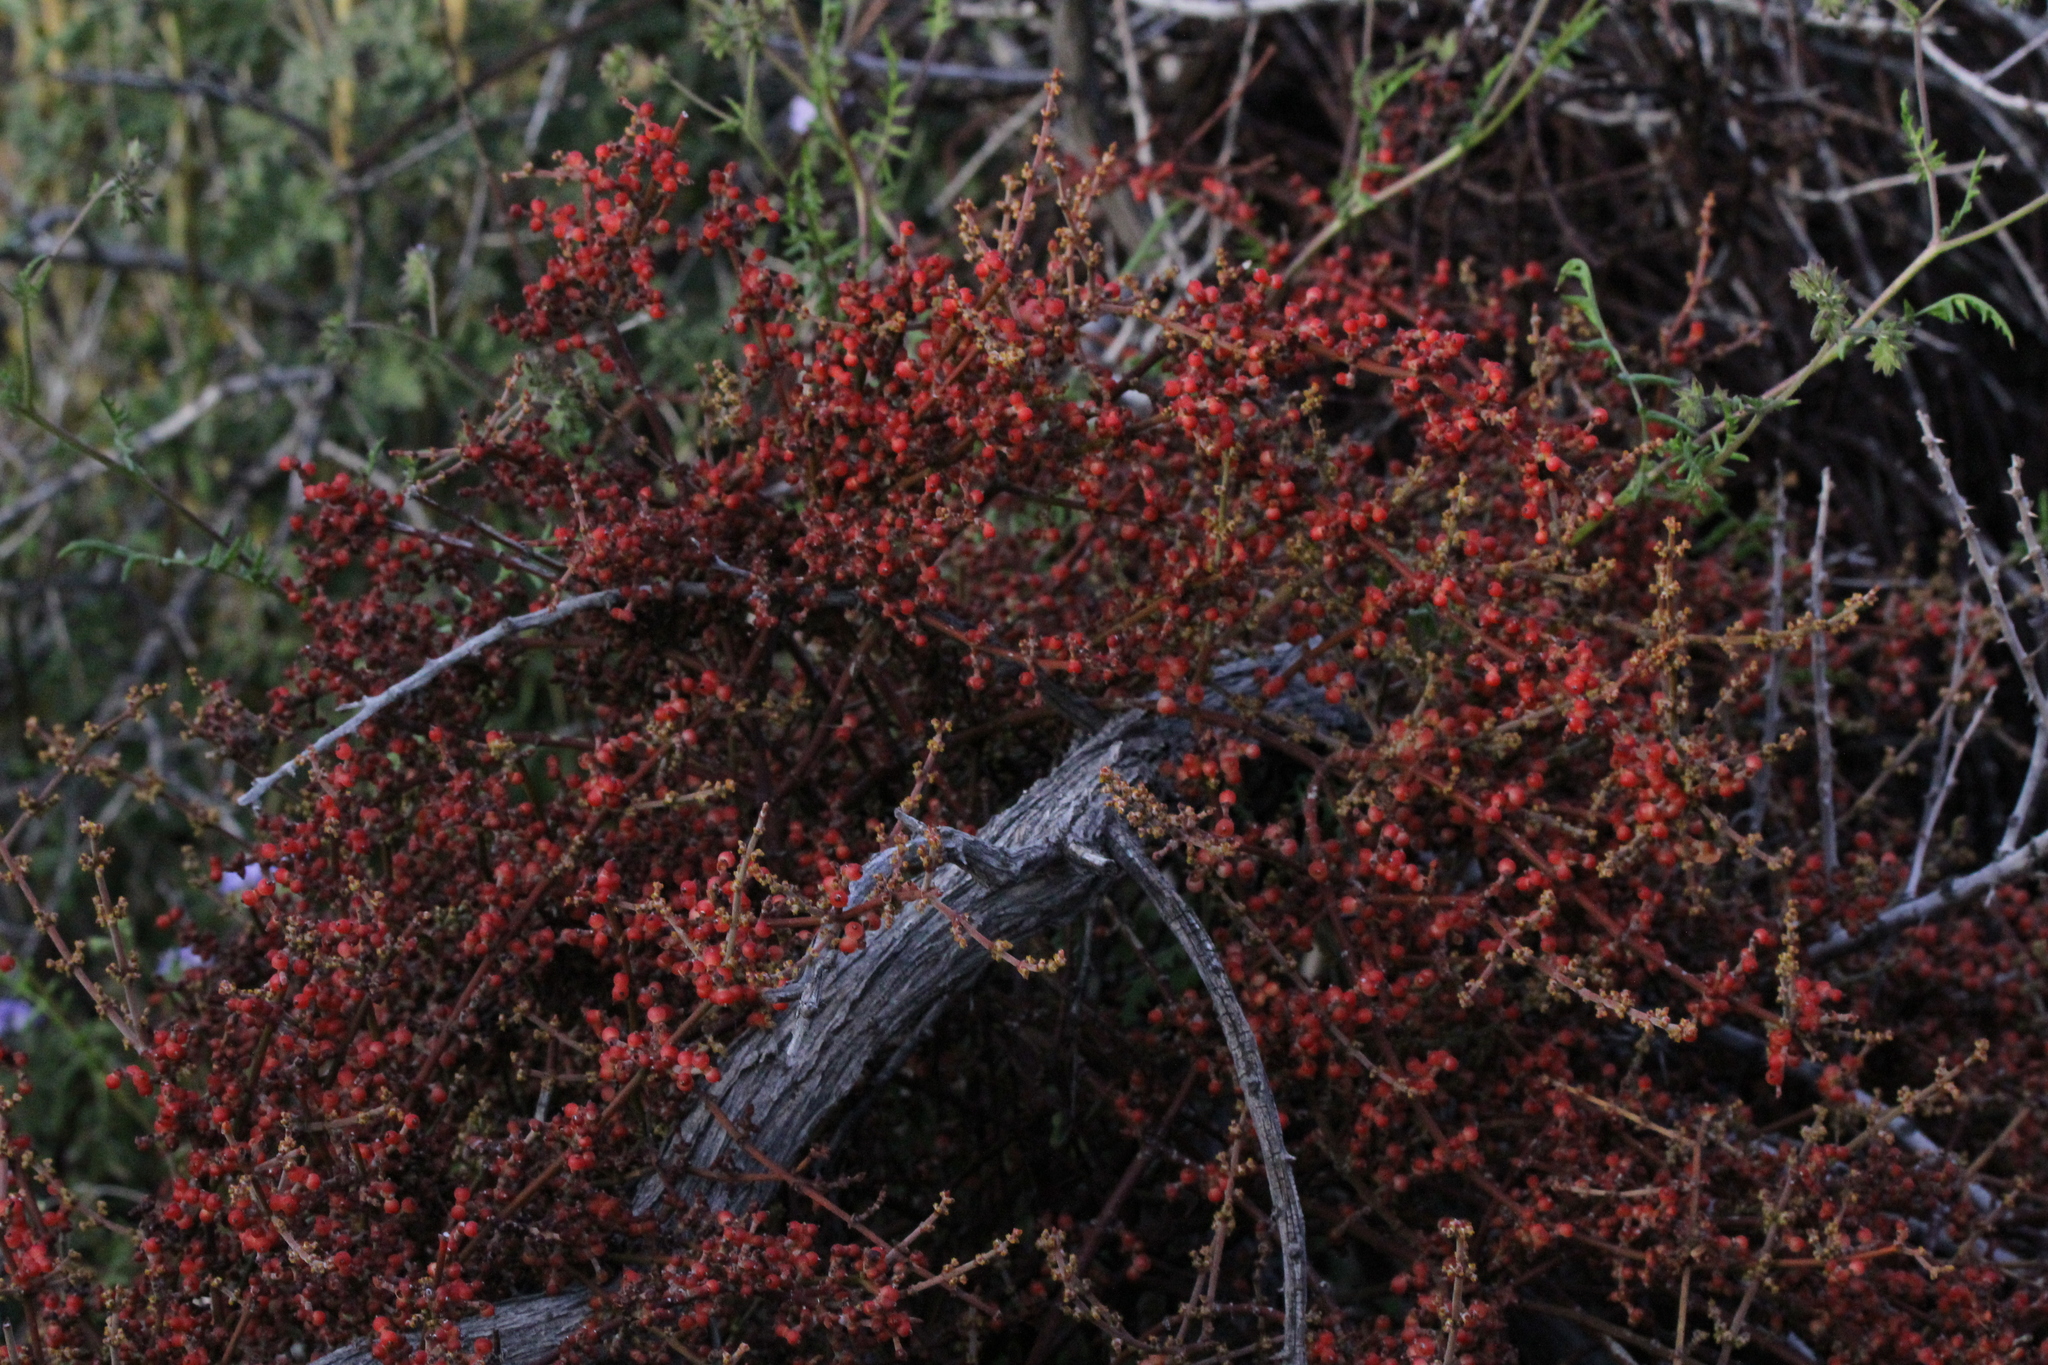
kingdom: Plantae
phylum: Tracheophyta
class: Magnoliopsida
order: Santalales
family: Viscaceae
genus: Phoradendron
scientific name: Phoradendron californicum
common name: Acacia mistletoe
